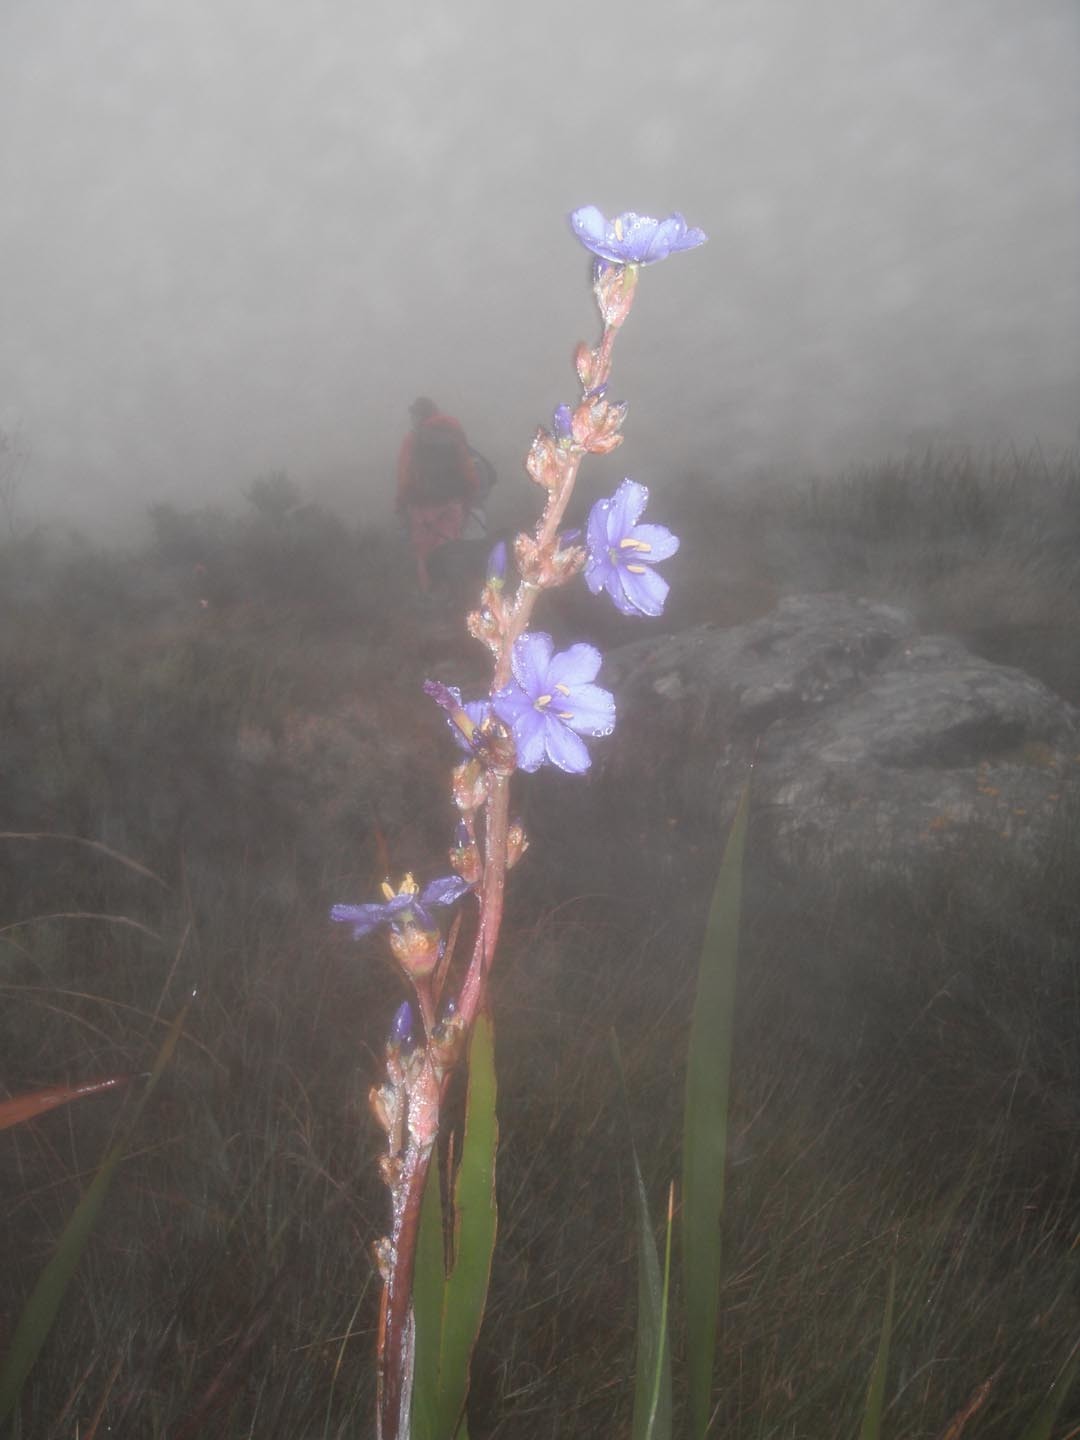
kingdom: Plantae
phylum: Tracheophyta
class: Liliopsida
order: Asparagales
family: Iridaceae
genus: Aristea
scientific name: Aristea capitata
